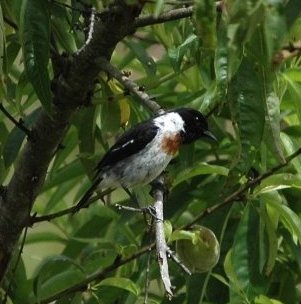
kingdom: Animalia
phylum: Chordata
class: Aves
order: Passeriformes
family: Muscicapidae
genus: Saxicola
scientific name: Saxicola torquatus
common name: African stonechat
